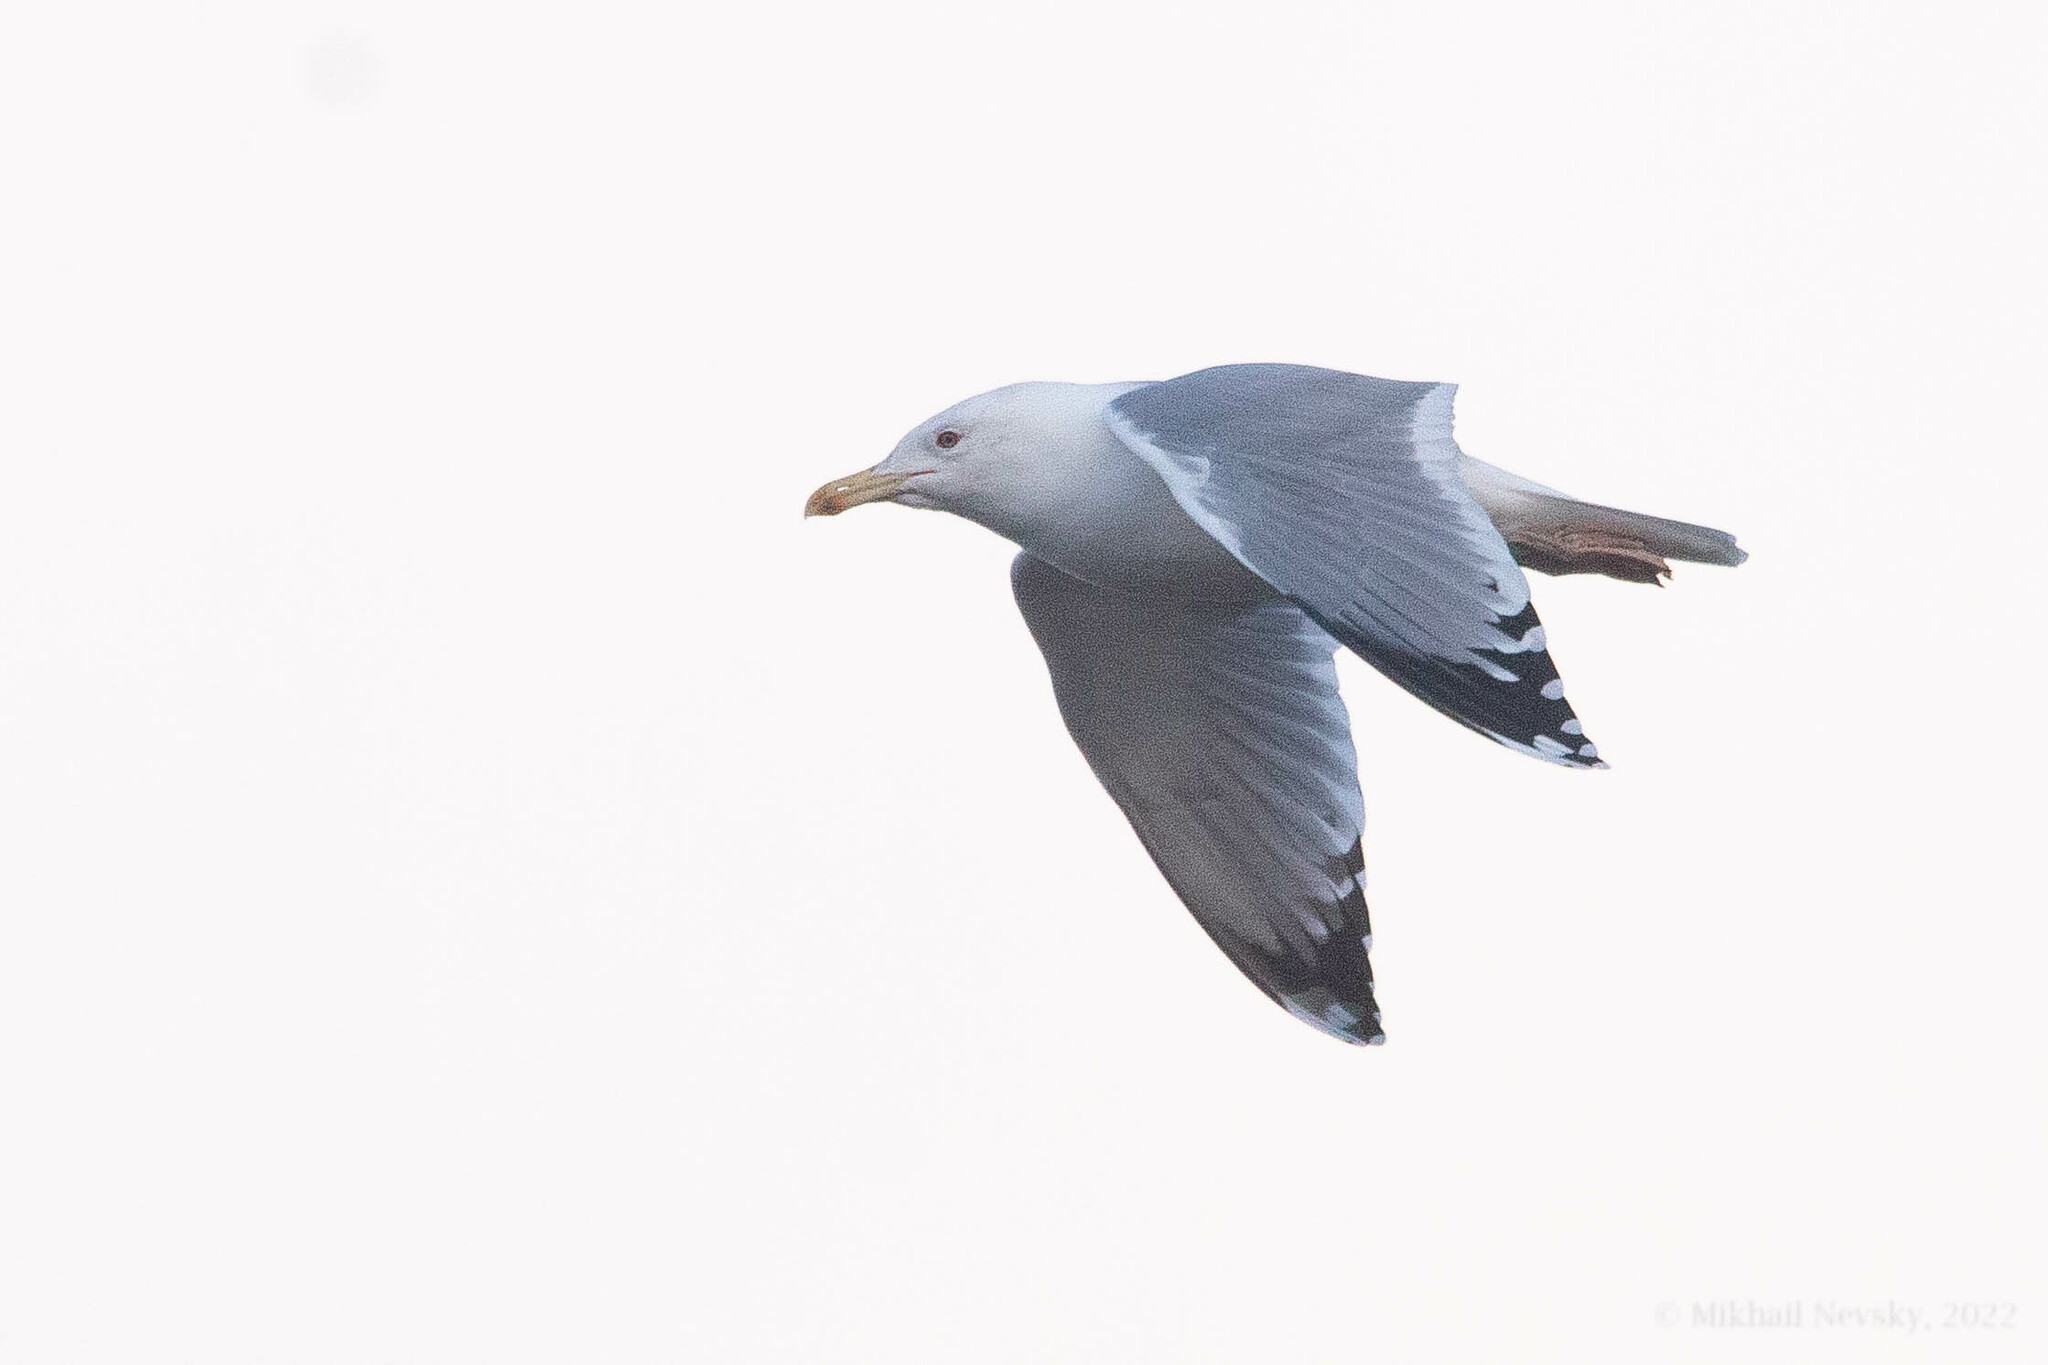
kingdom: Animalia
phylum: Chordata
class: Aves
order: Charadriiformes
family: Laridae
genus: Larus
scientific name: Larus cachinnans
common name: Caspian gull
